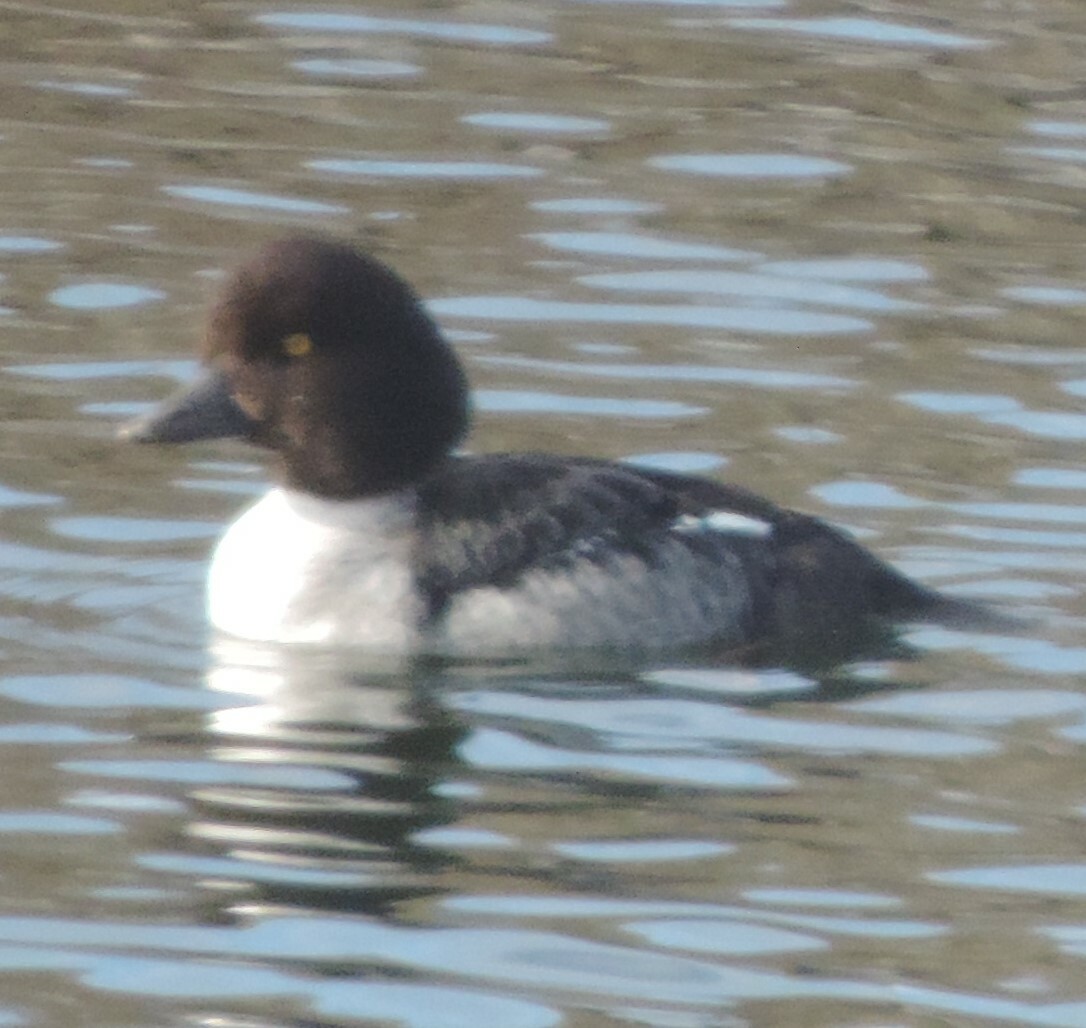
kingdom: Animalia
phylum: Chordata
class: Aves
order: Anseriformes
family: Anatidae
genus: Bucephala
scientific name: Bucephala clangula
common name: Common goldeneye
